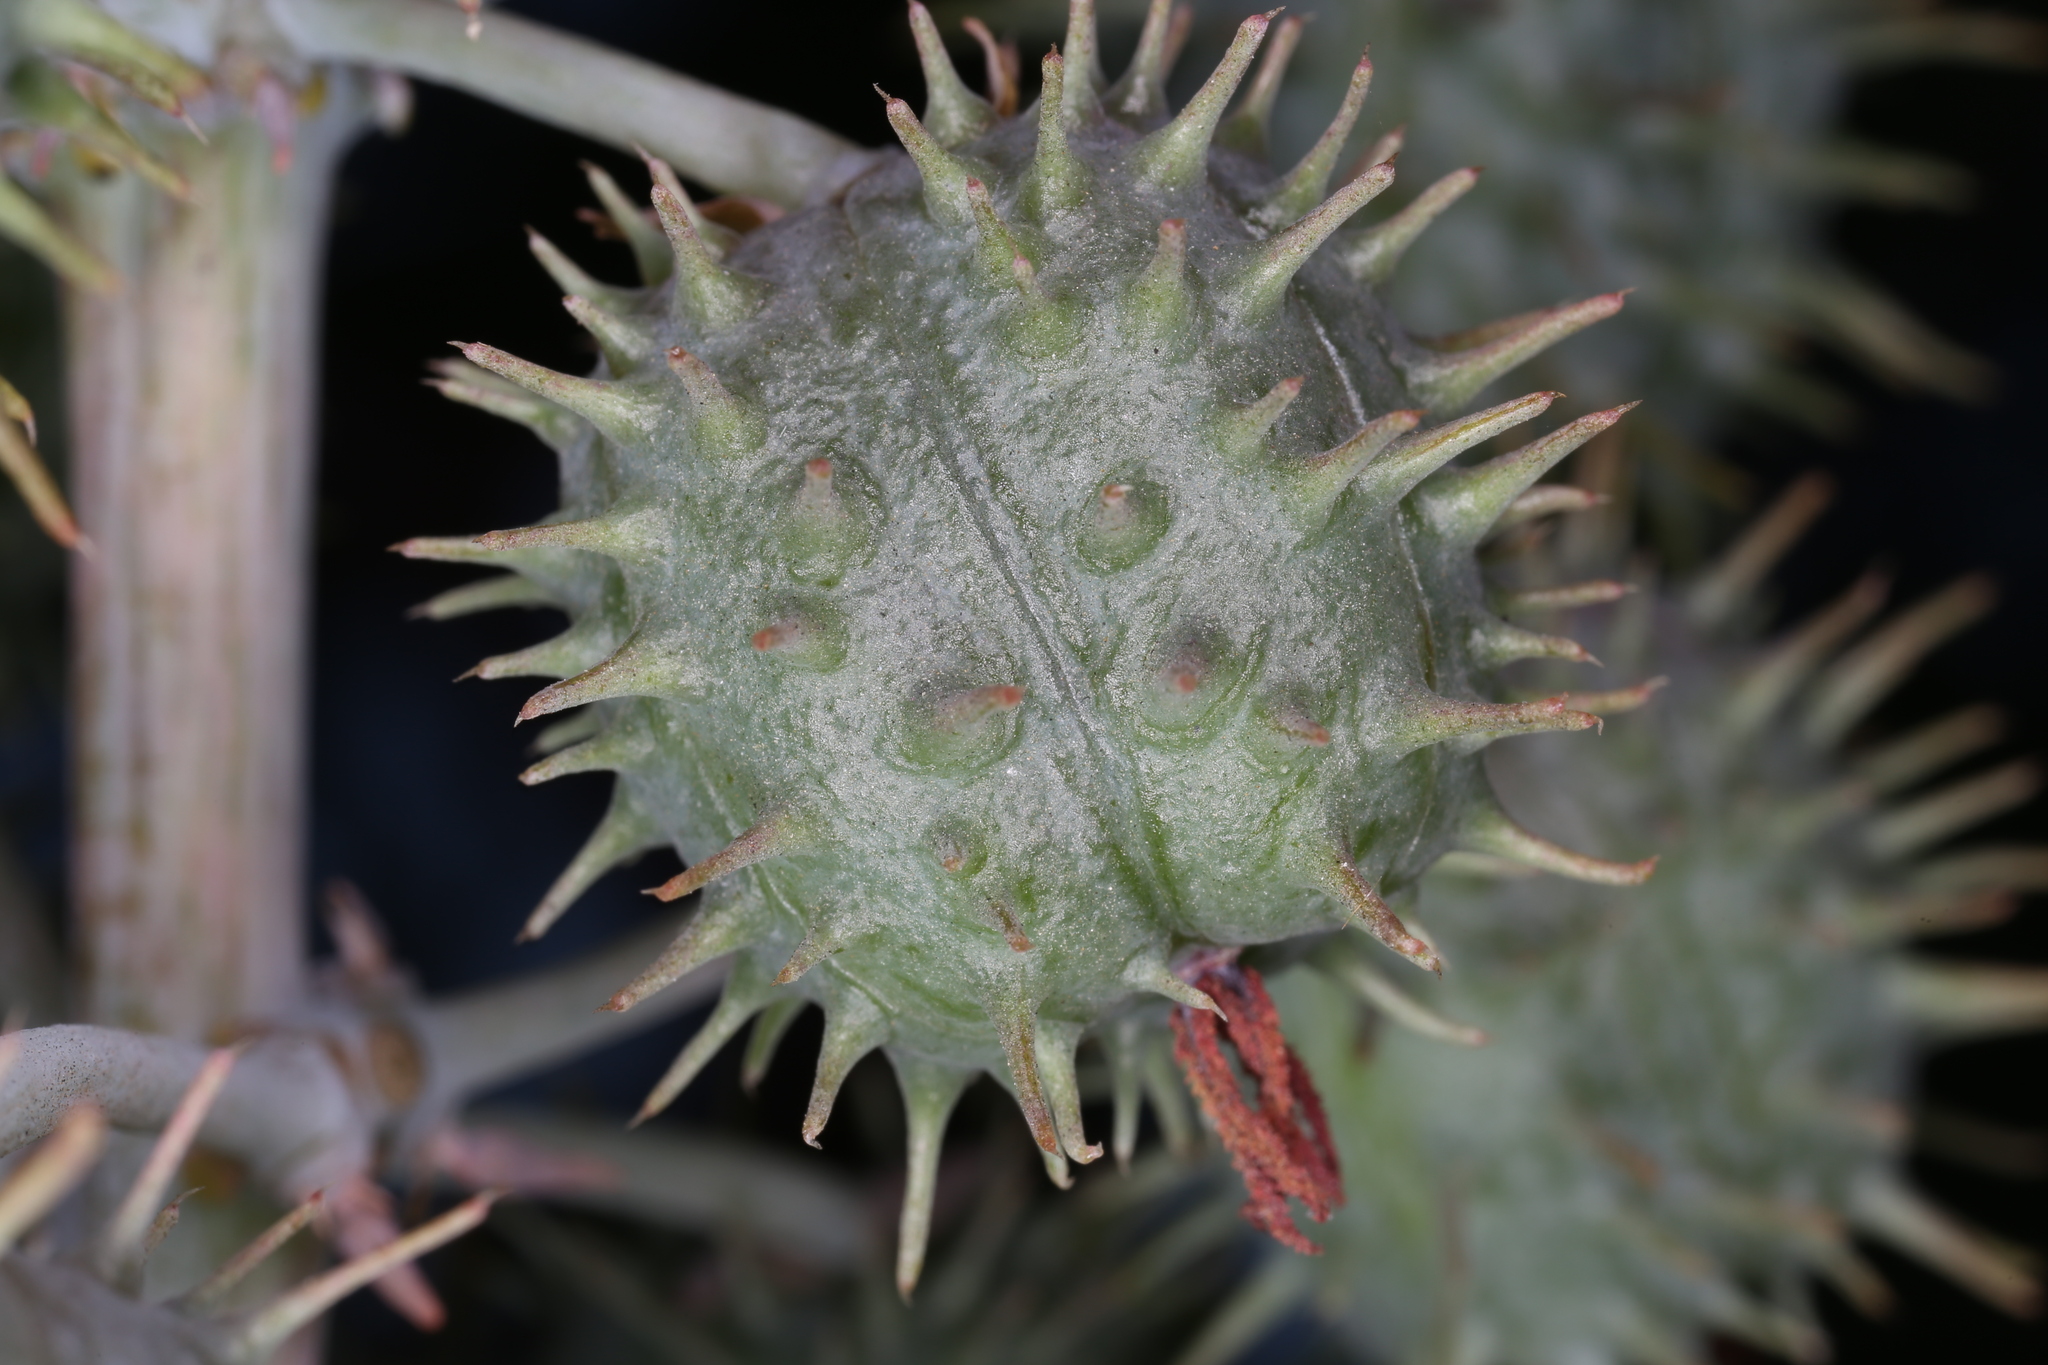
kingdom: Plantae
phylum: Tracheophyta
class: Magnoliopsida
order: Malpighiales
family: Euphorbiaceae
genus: Ricinus
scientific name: Ricinus communis
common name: Castor-oil-plant
